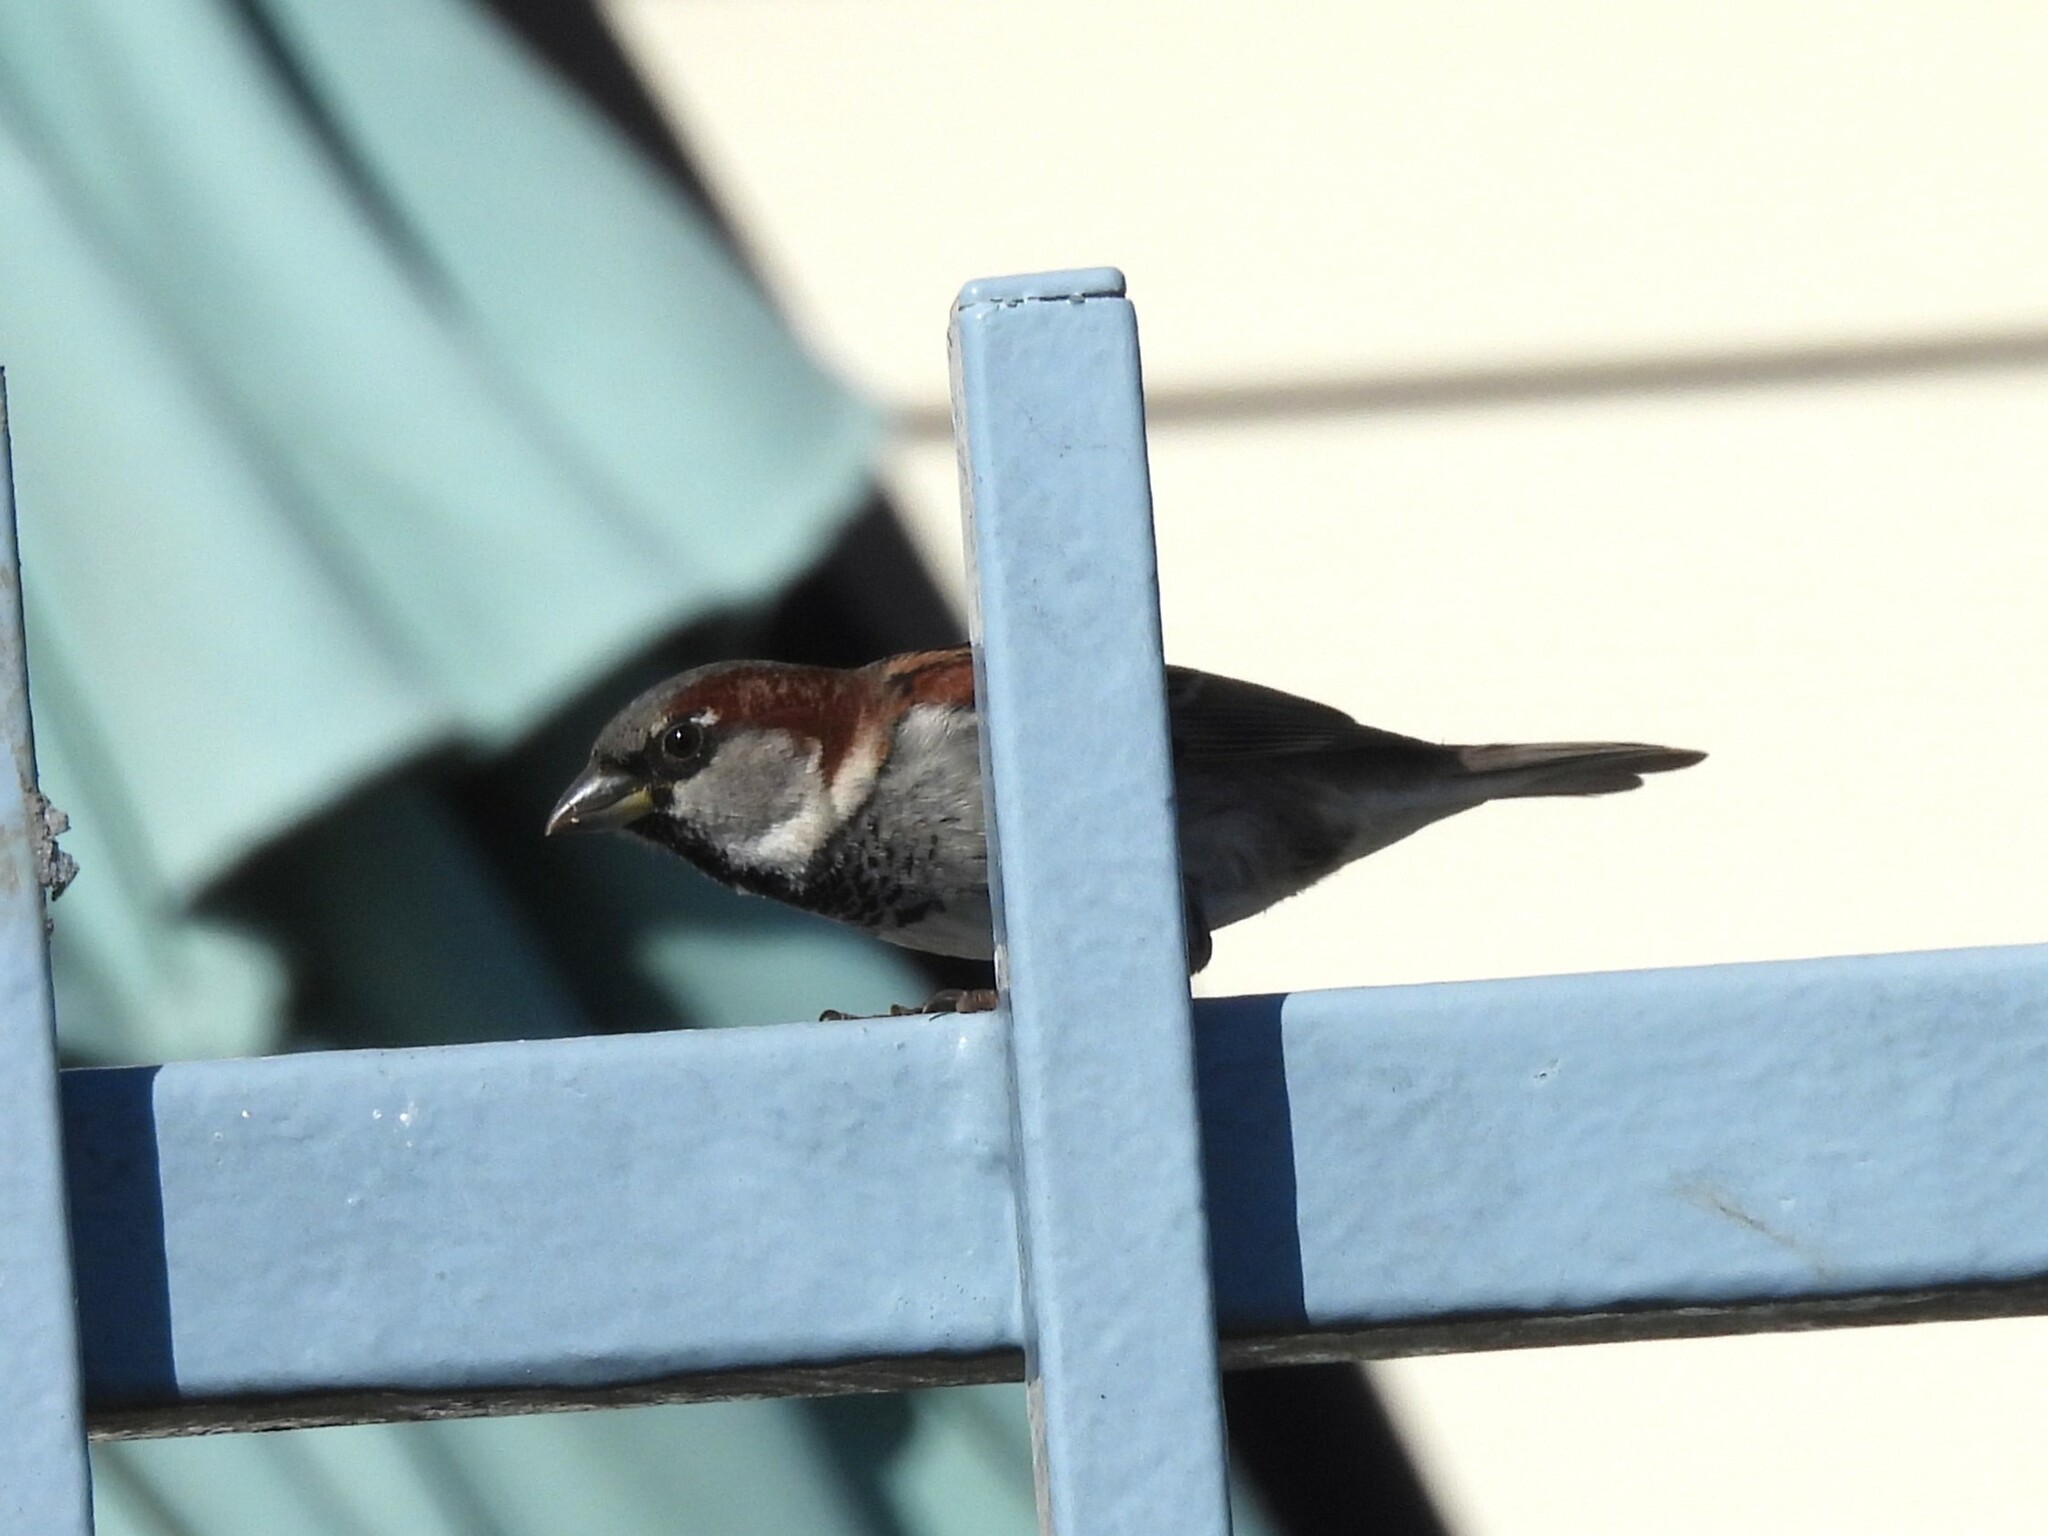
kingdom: Animalia
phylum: Chordata
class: Aves
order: Passeriformes
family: Passeridae
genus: Passer
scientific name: Passer domesticus
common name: House sparrow
